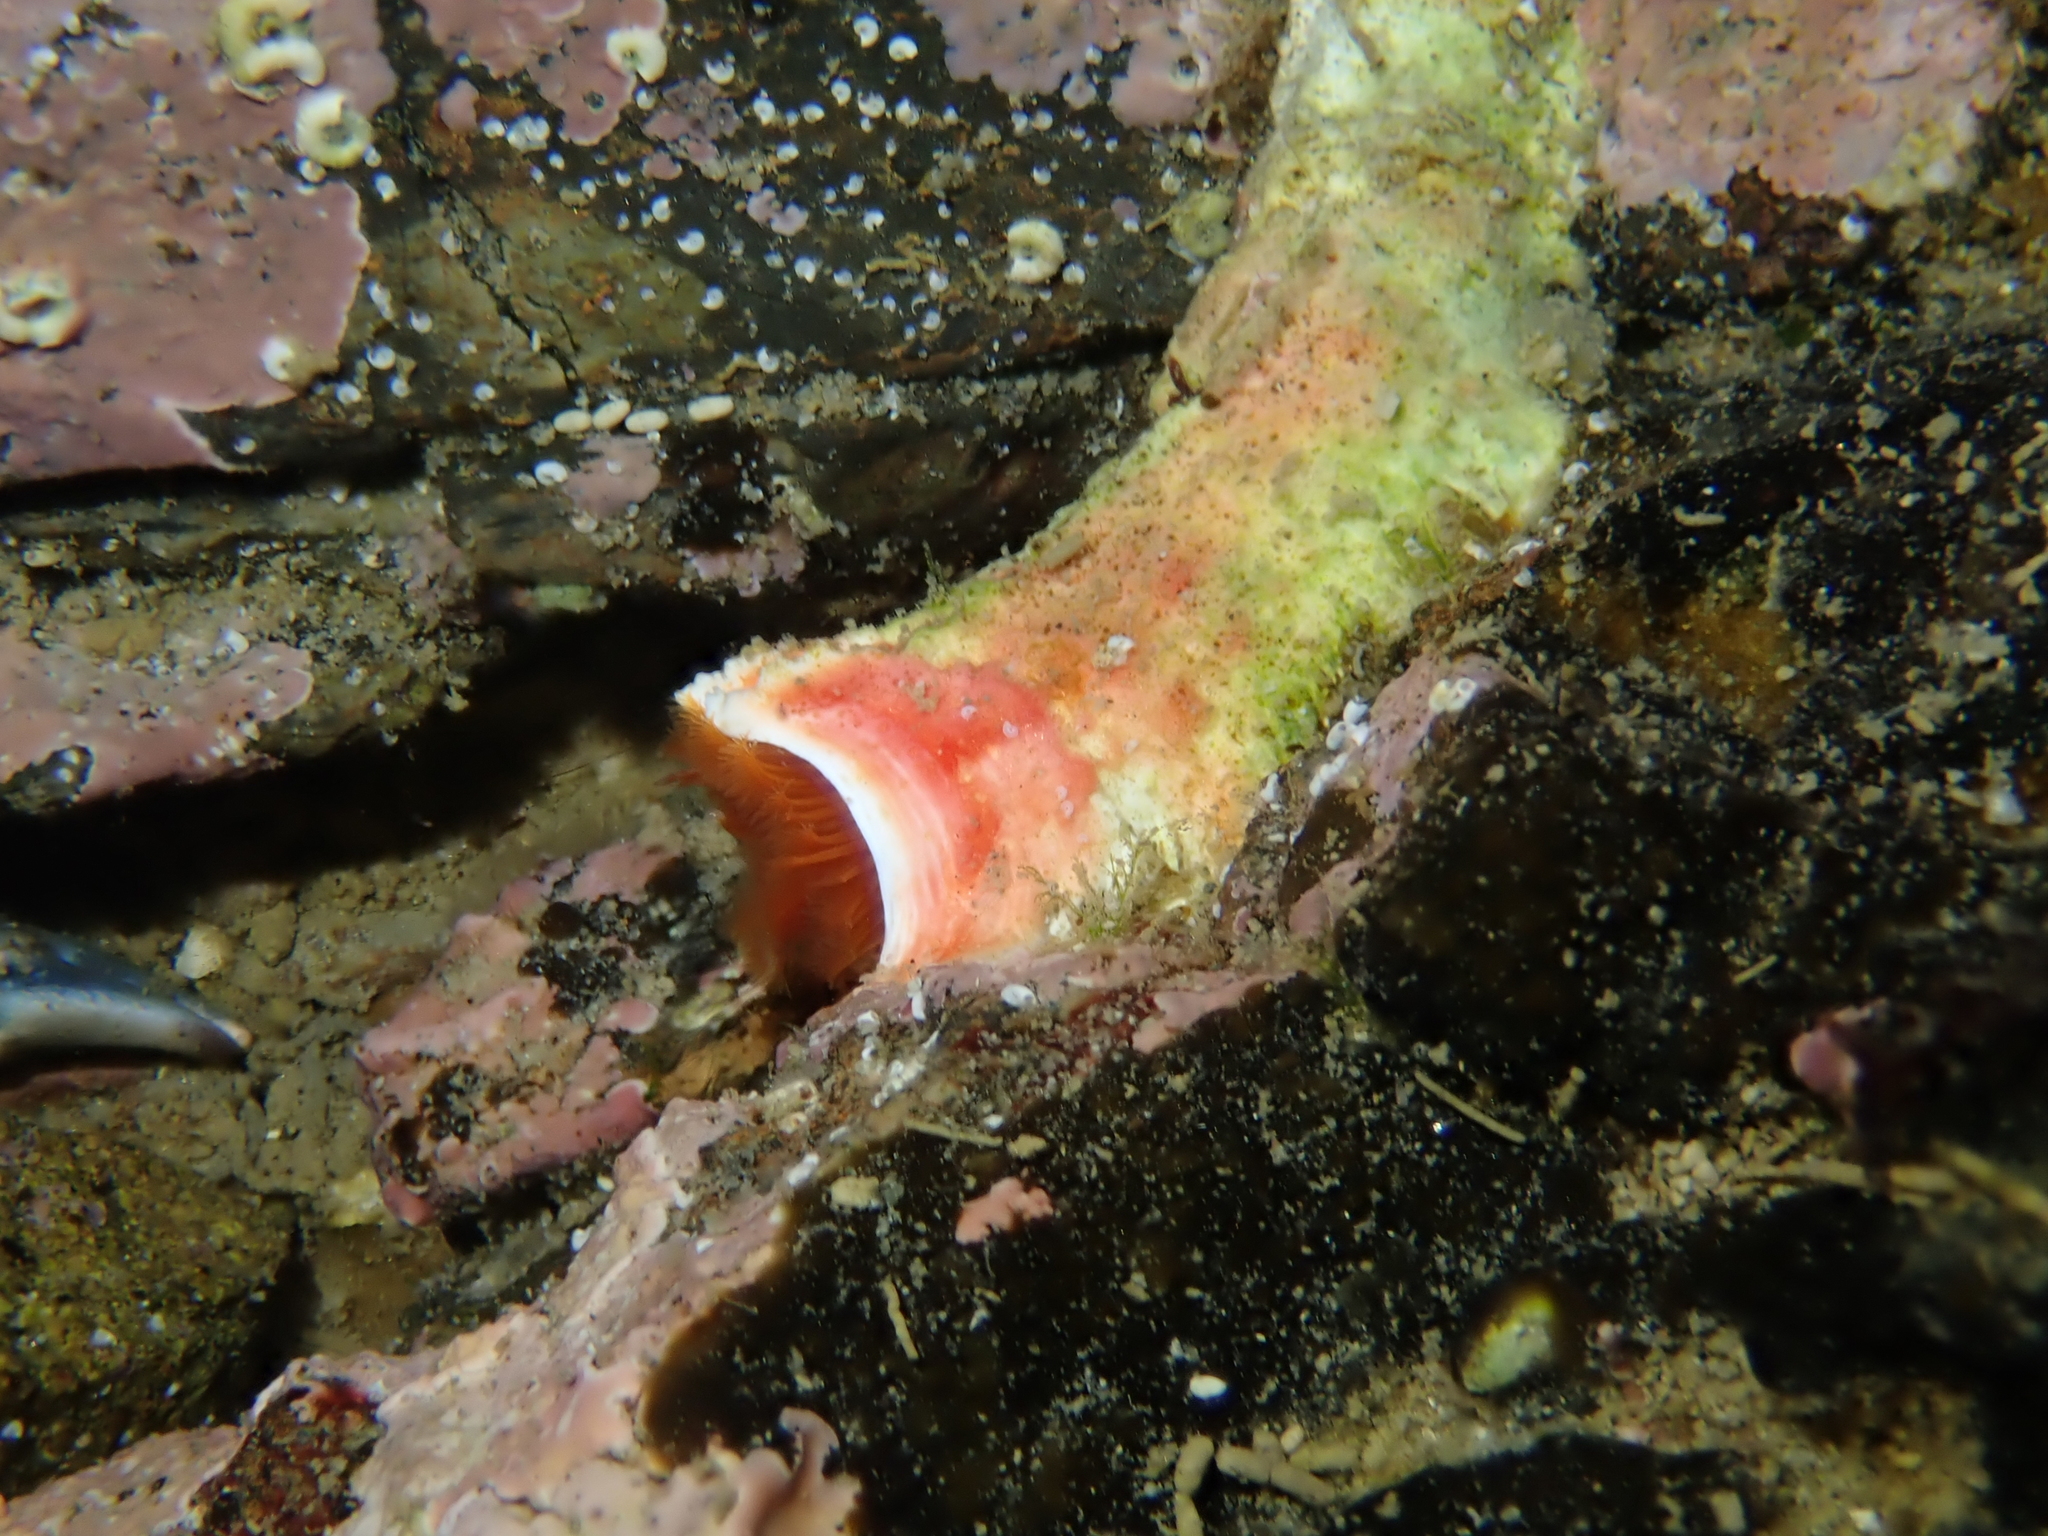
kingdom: Animalia
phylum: Annelida
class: Polychaeta
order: Sabellida
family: Serpulidae
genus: Galeolaria
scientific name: Galeolaria hystrix
